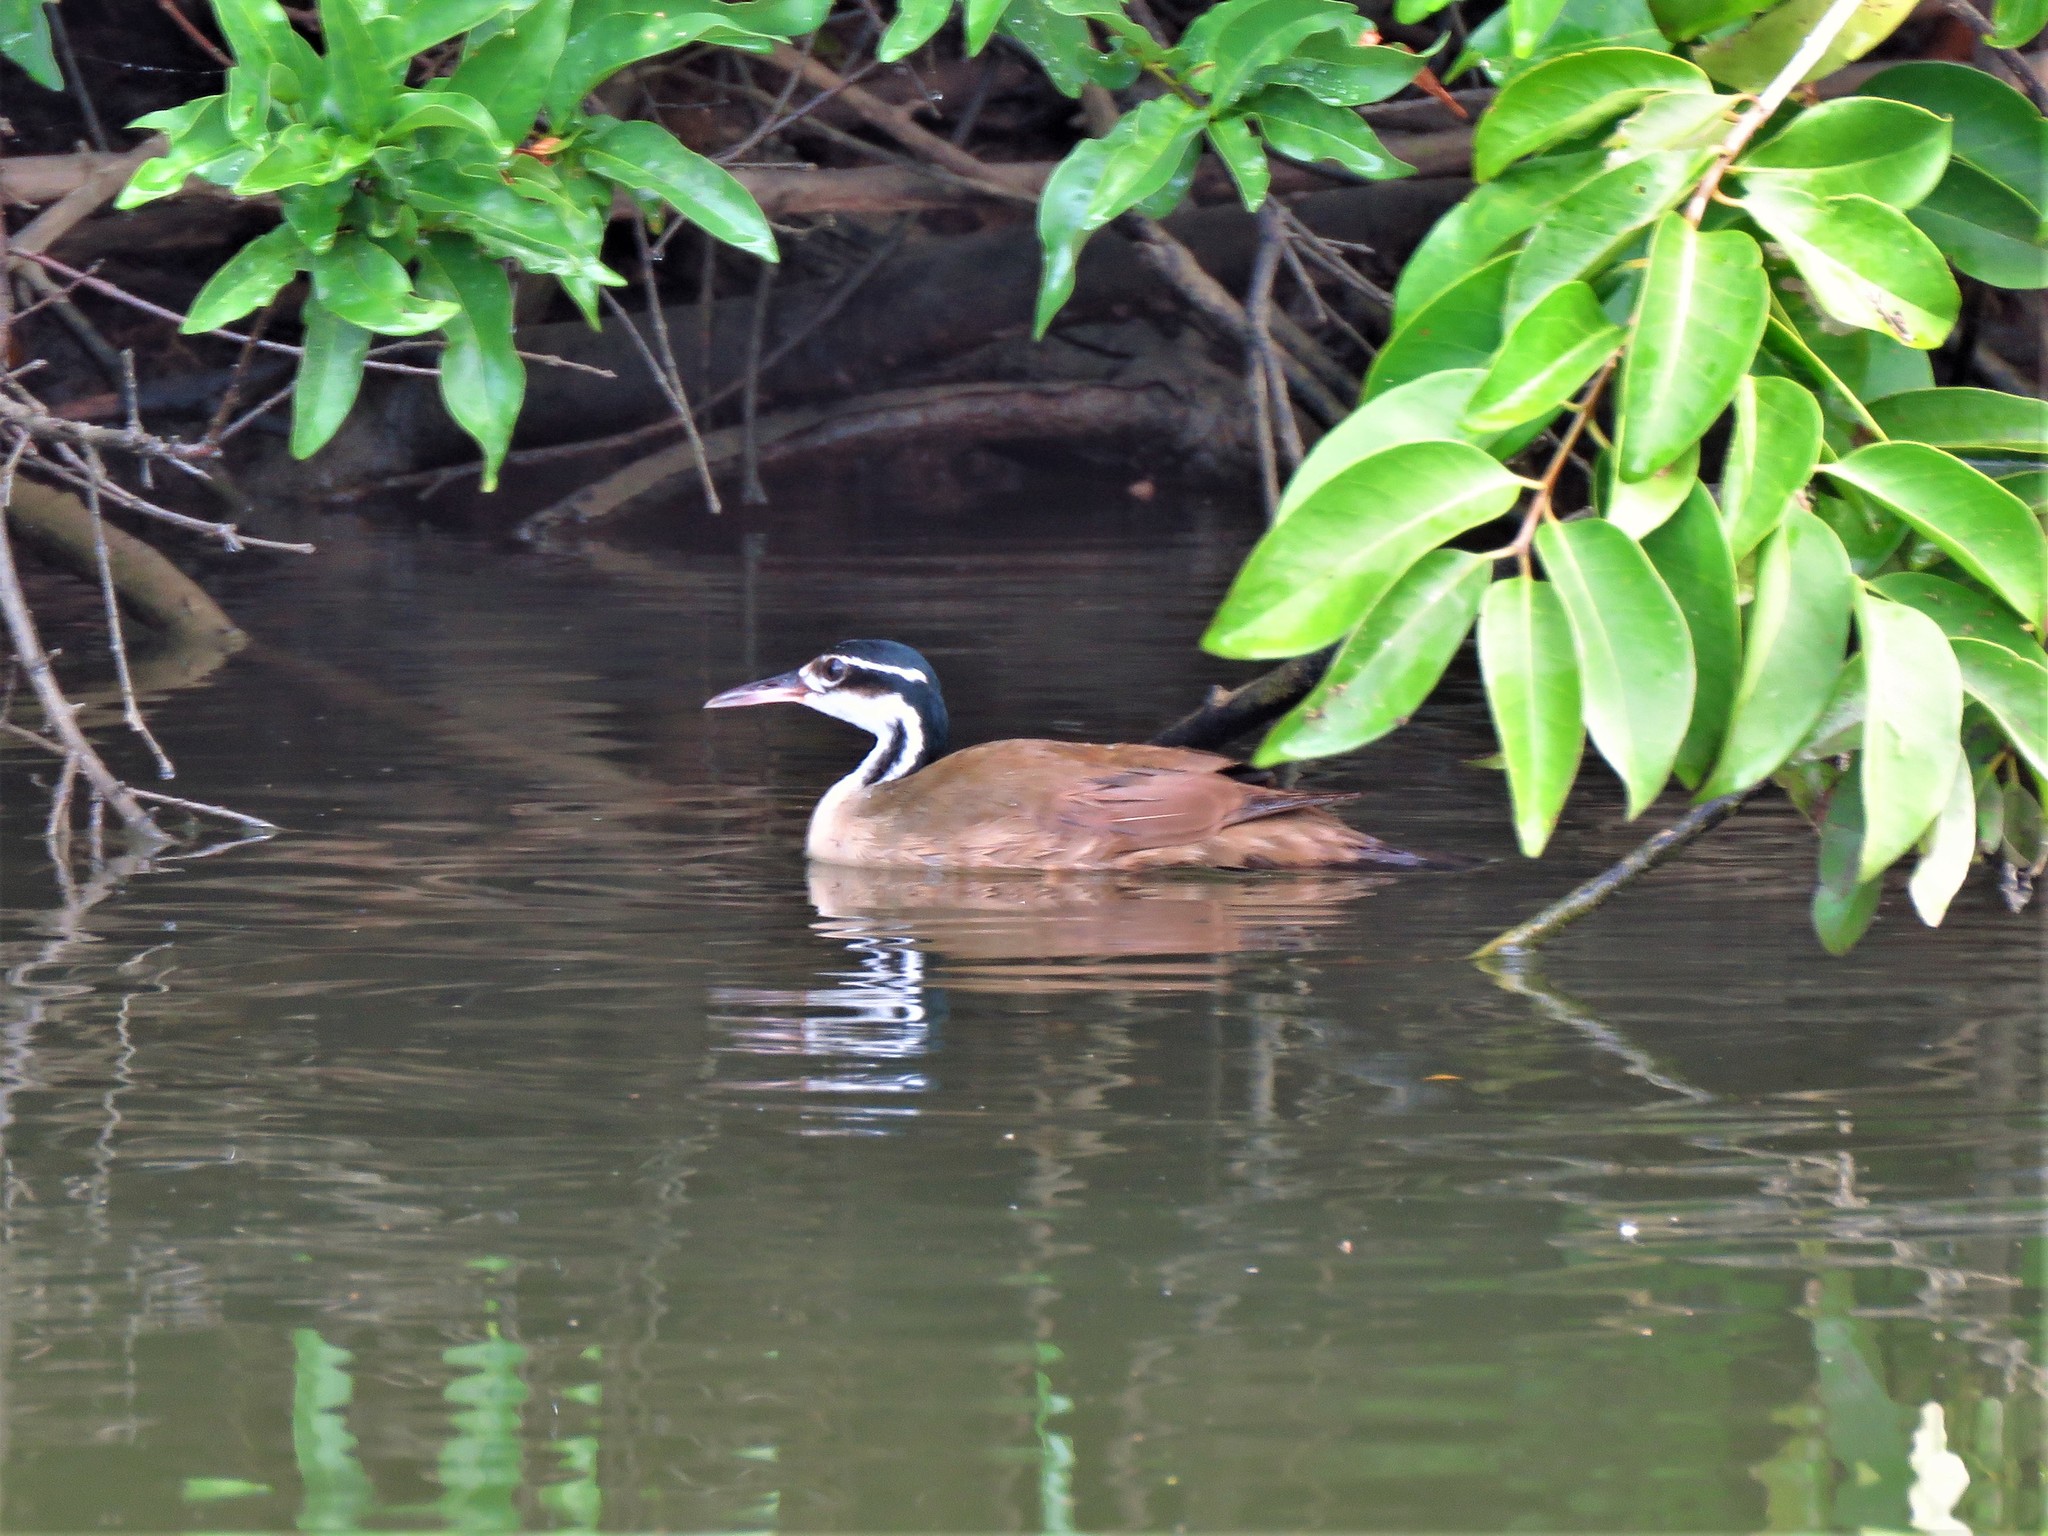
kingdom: Animalia
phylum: Chordata
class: Aves
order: Gruiformes
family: Heliornithidae
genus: Heliornis
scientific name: Heliornis fulica
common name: Sungrebe
